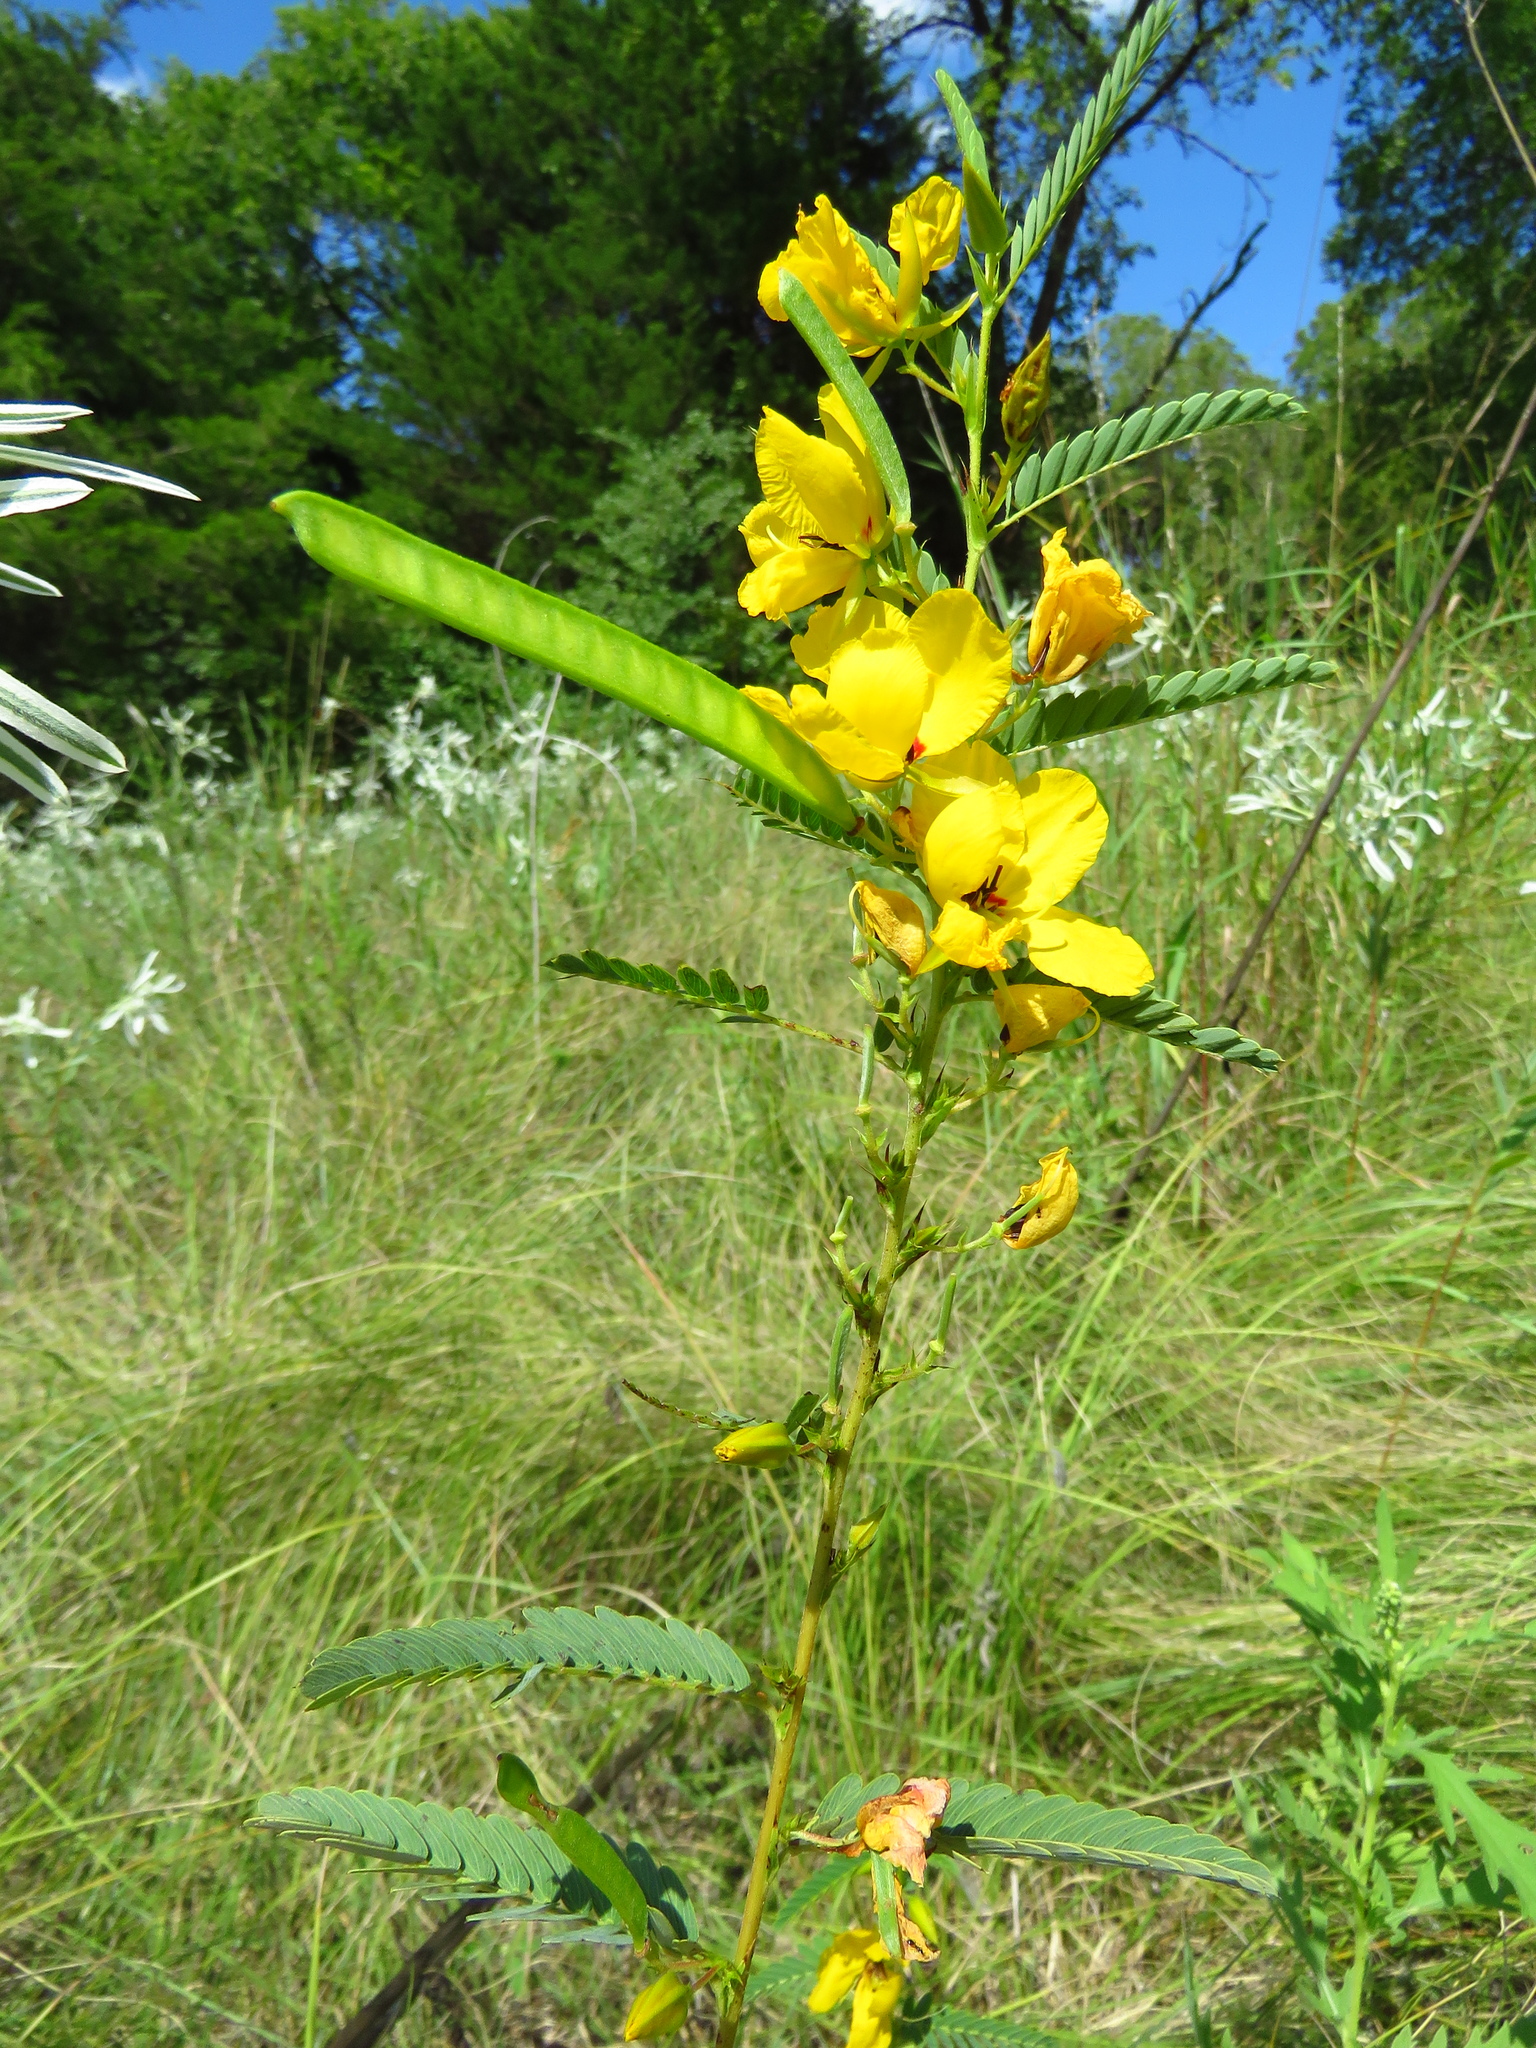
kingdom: Plantae
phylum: Tracheophyta
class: Magnoliopsida
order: Fabales
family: Fabaceae
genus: Chamaecrista
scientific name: Chamaecrista fasciculata
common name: Golden cassia
